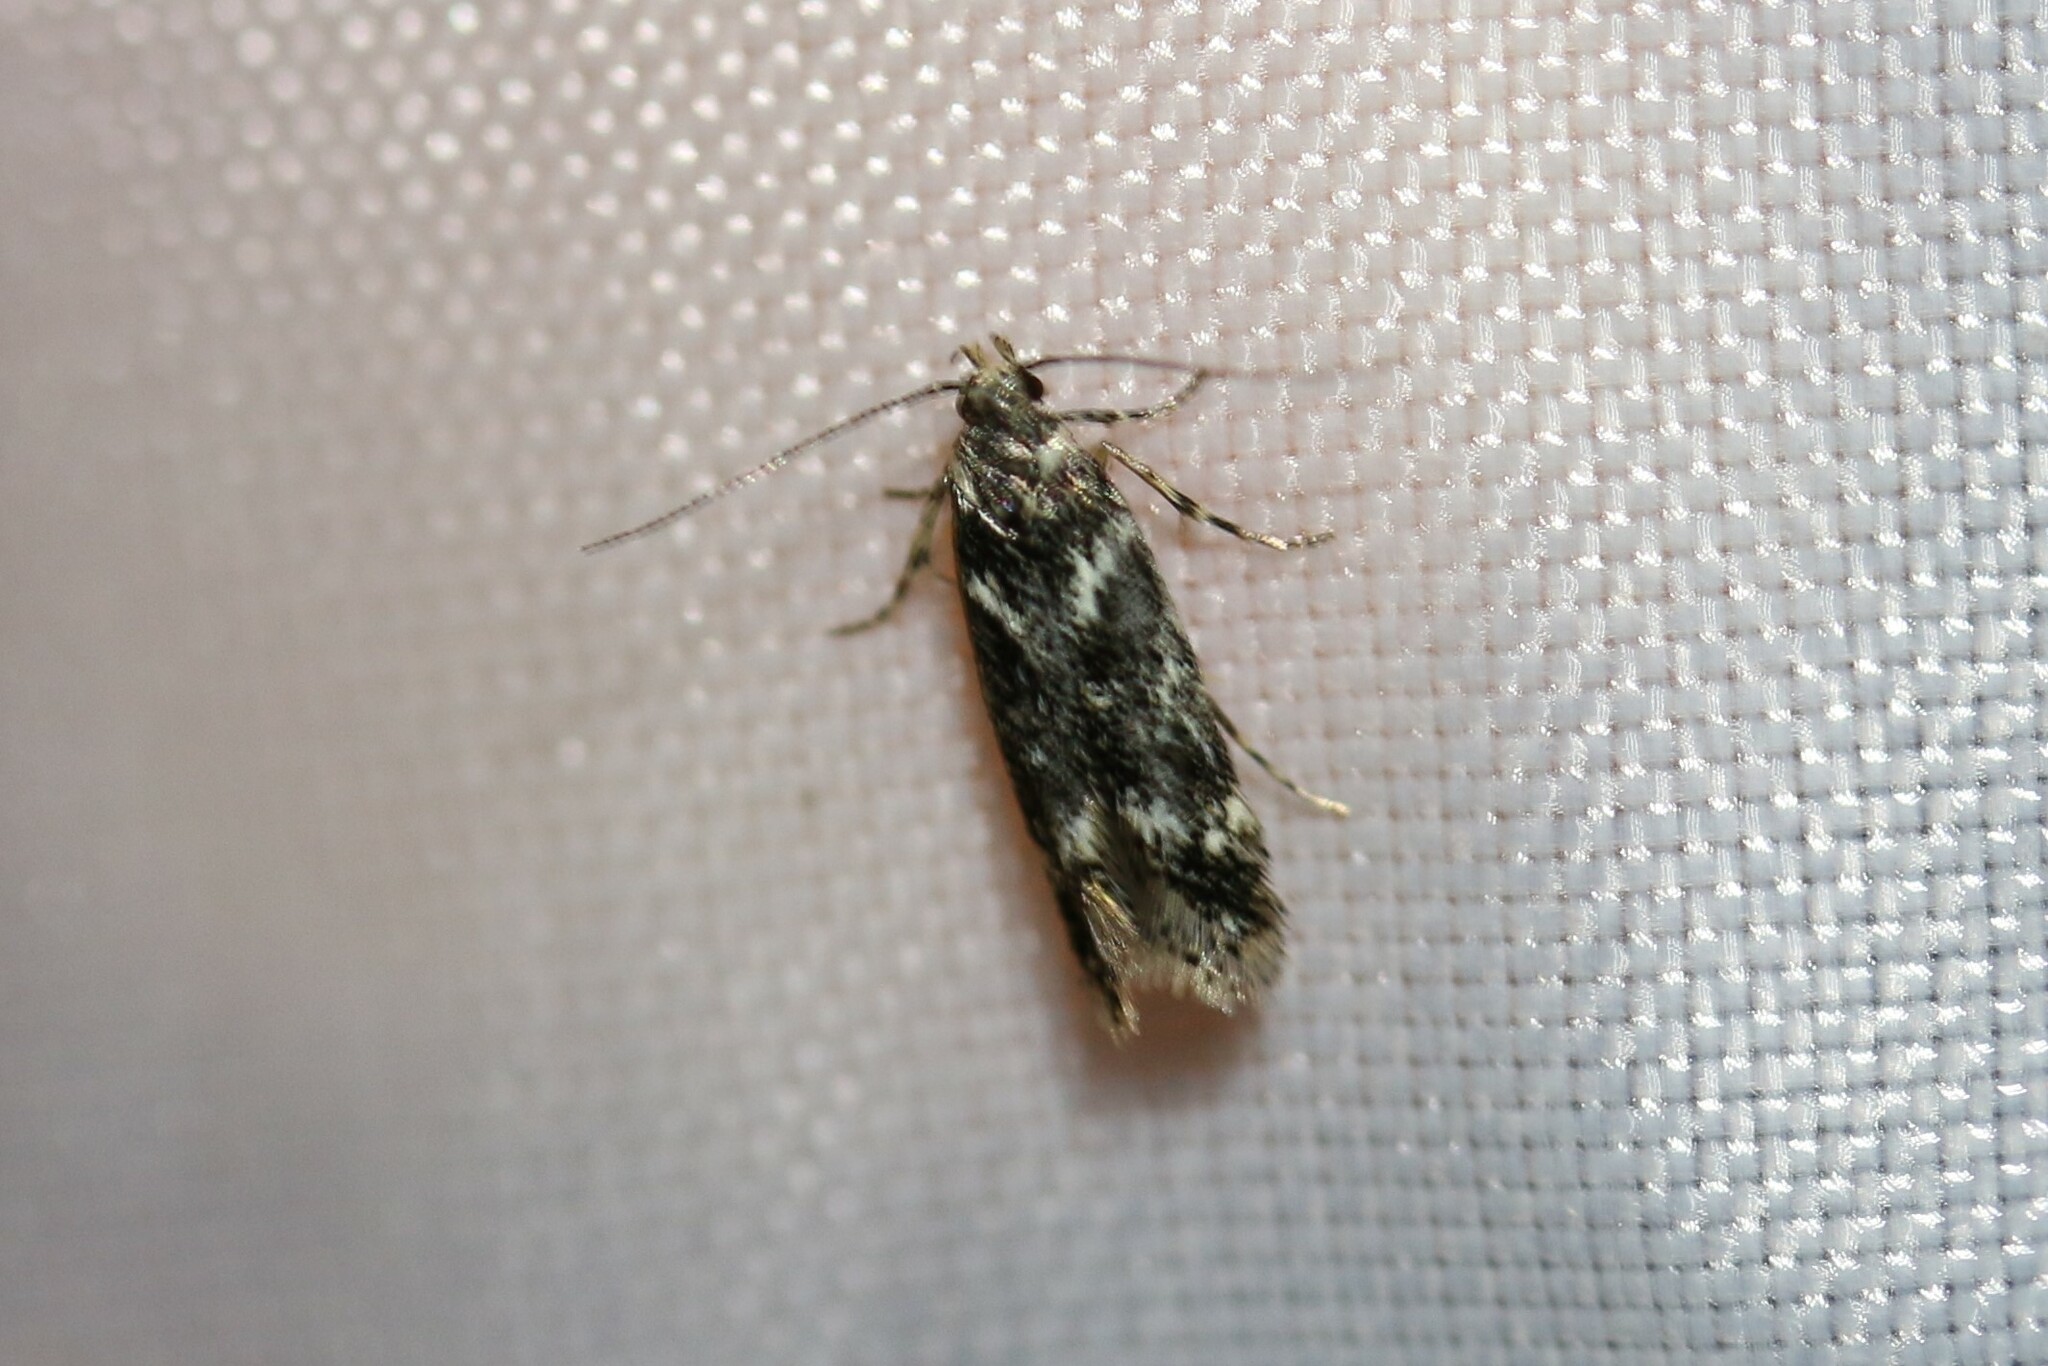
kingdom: Animalia
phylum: Arthropoda
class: Insecta
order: Lepidoptera
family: Gelechiidae
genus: Klimeschiopsis
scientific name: Klimeschiopsis kiningerella
